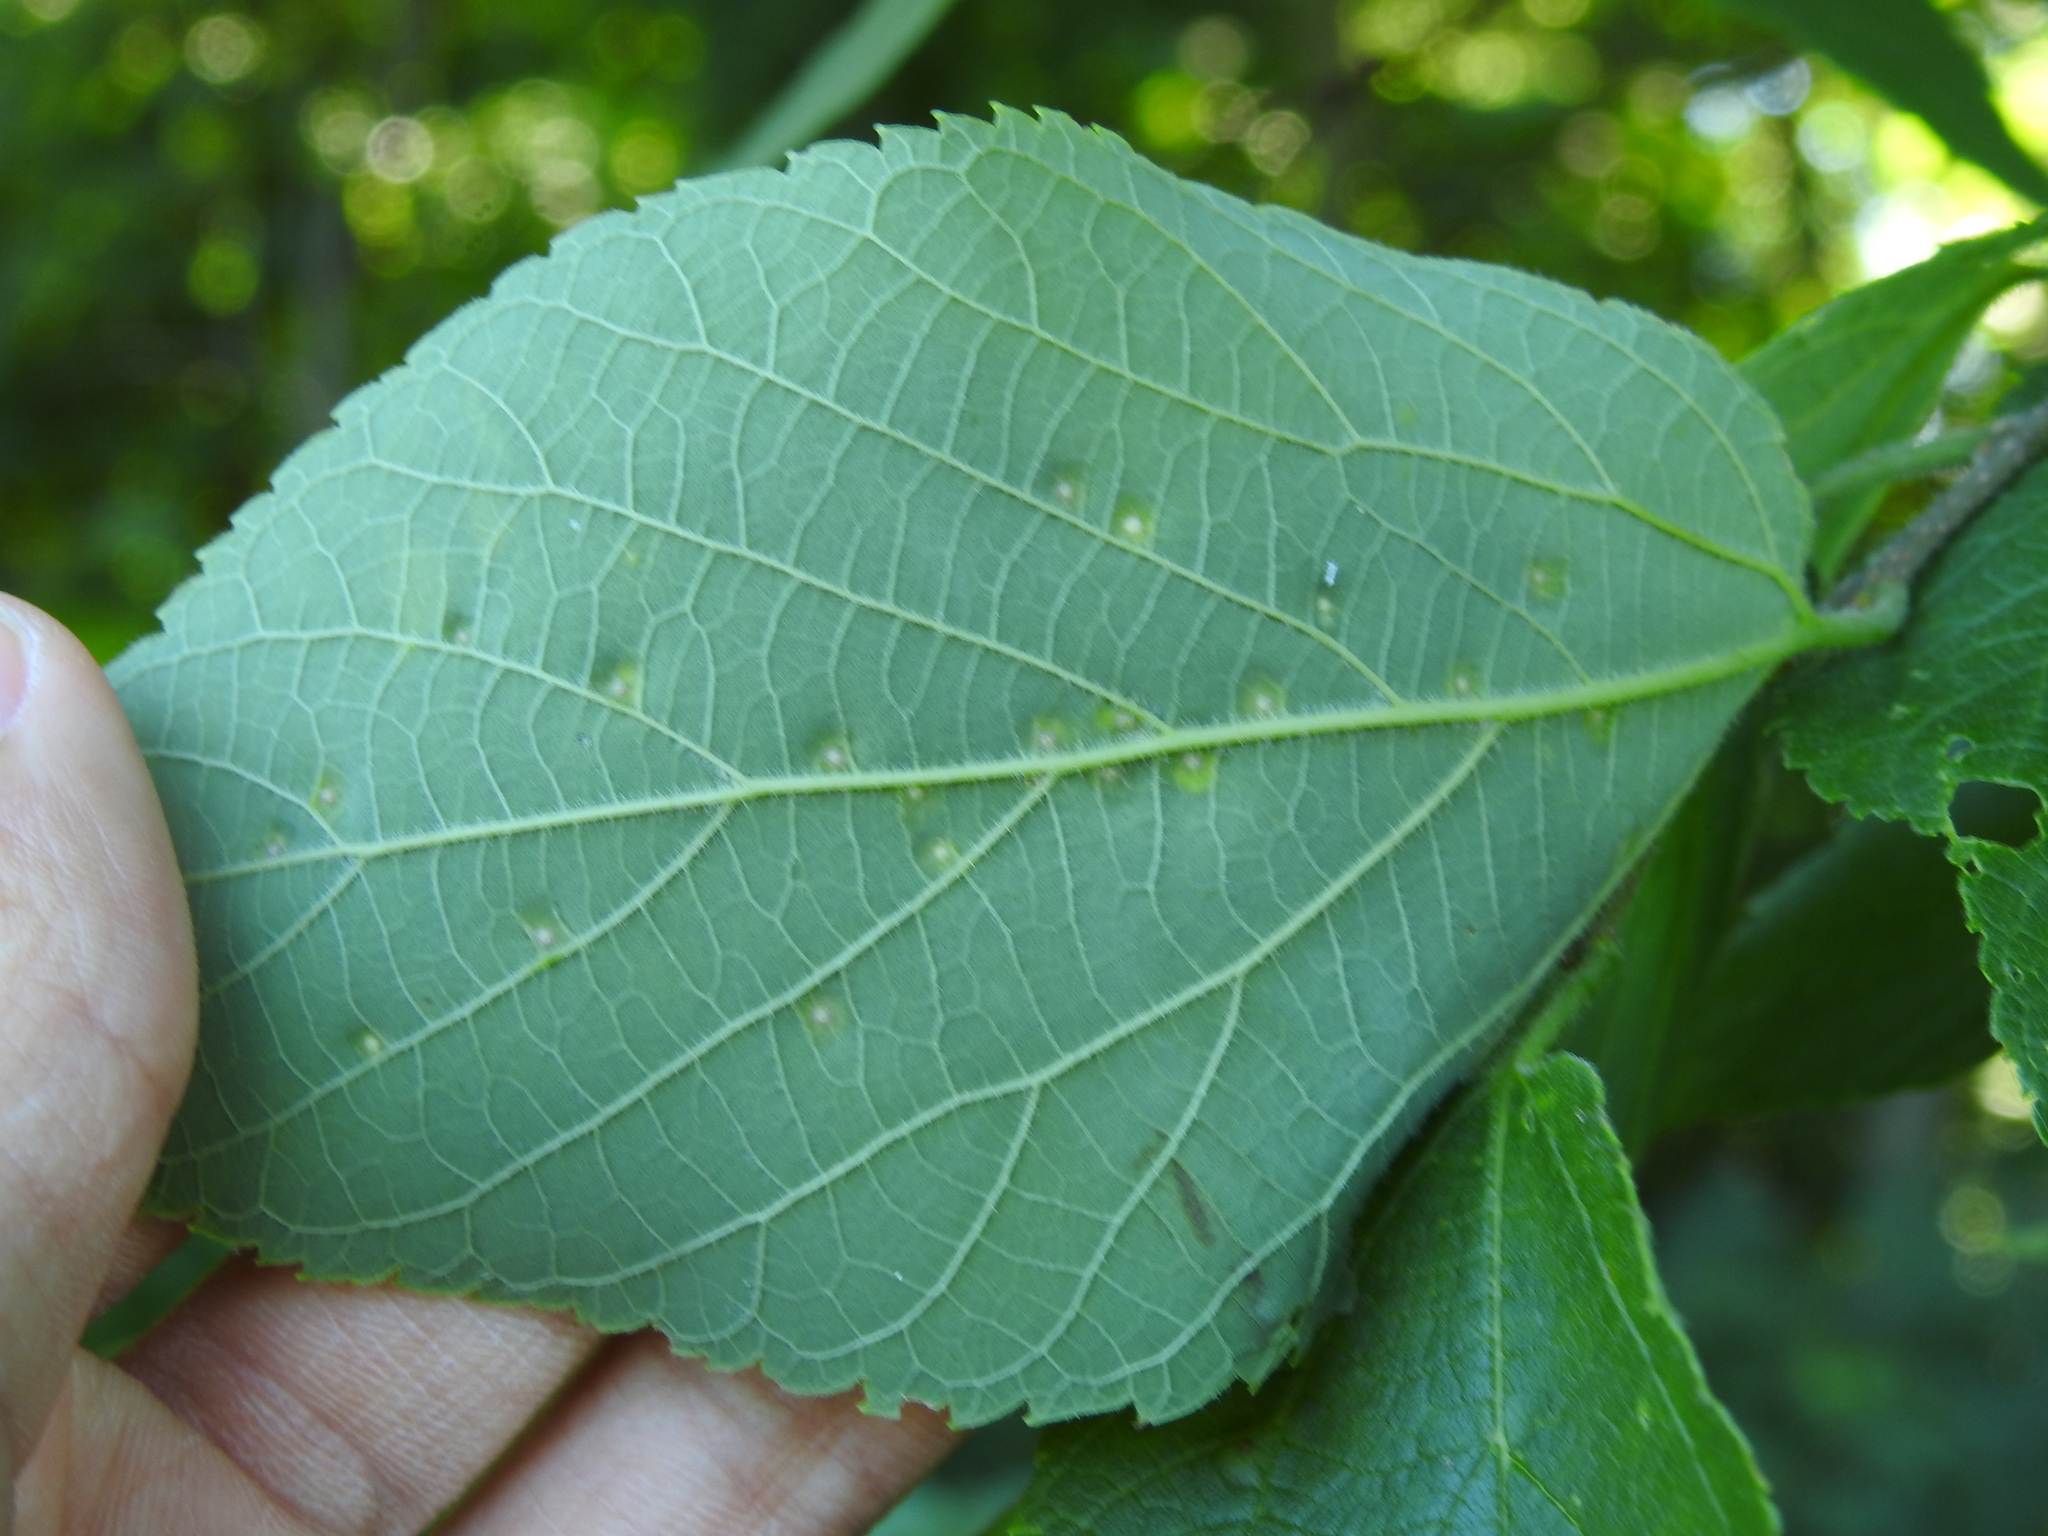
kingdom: Animalia
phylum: Arthropoda
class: Insecta
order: Hemiptera
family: Aphalaridae
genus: Pachypsylla
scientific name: Pachypsylla celtidisvesicula
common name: Hackberry blister gall psyllid
